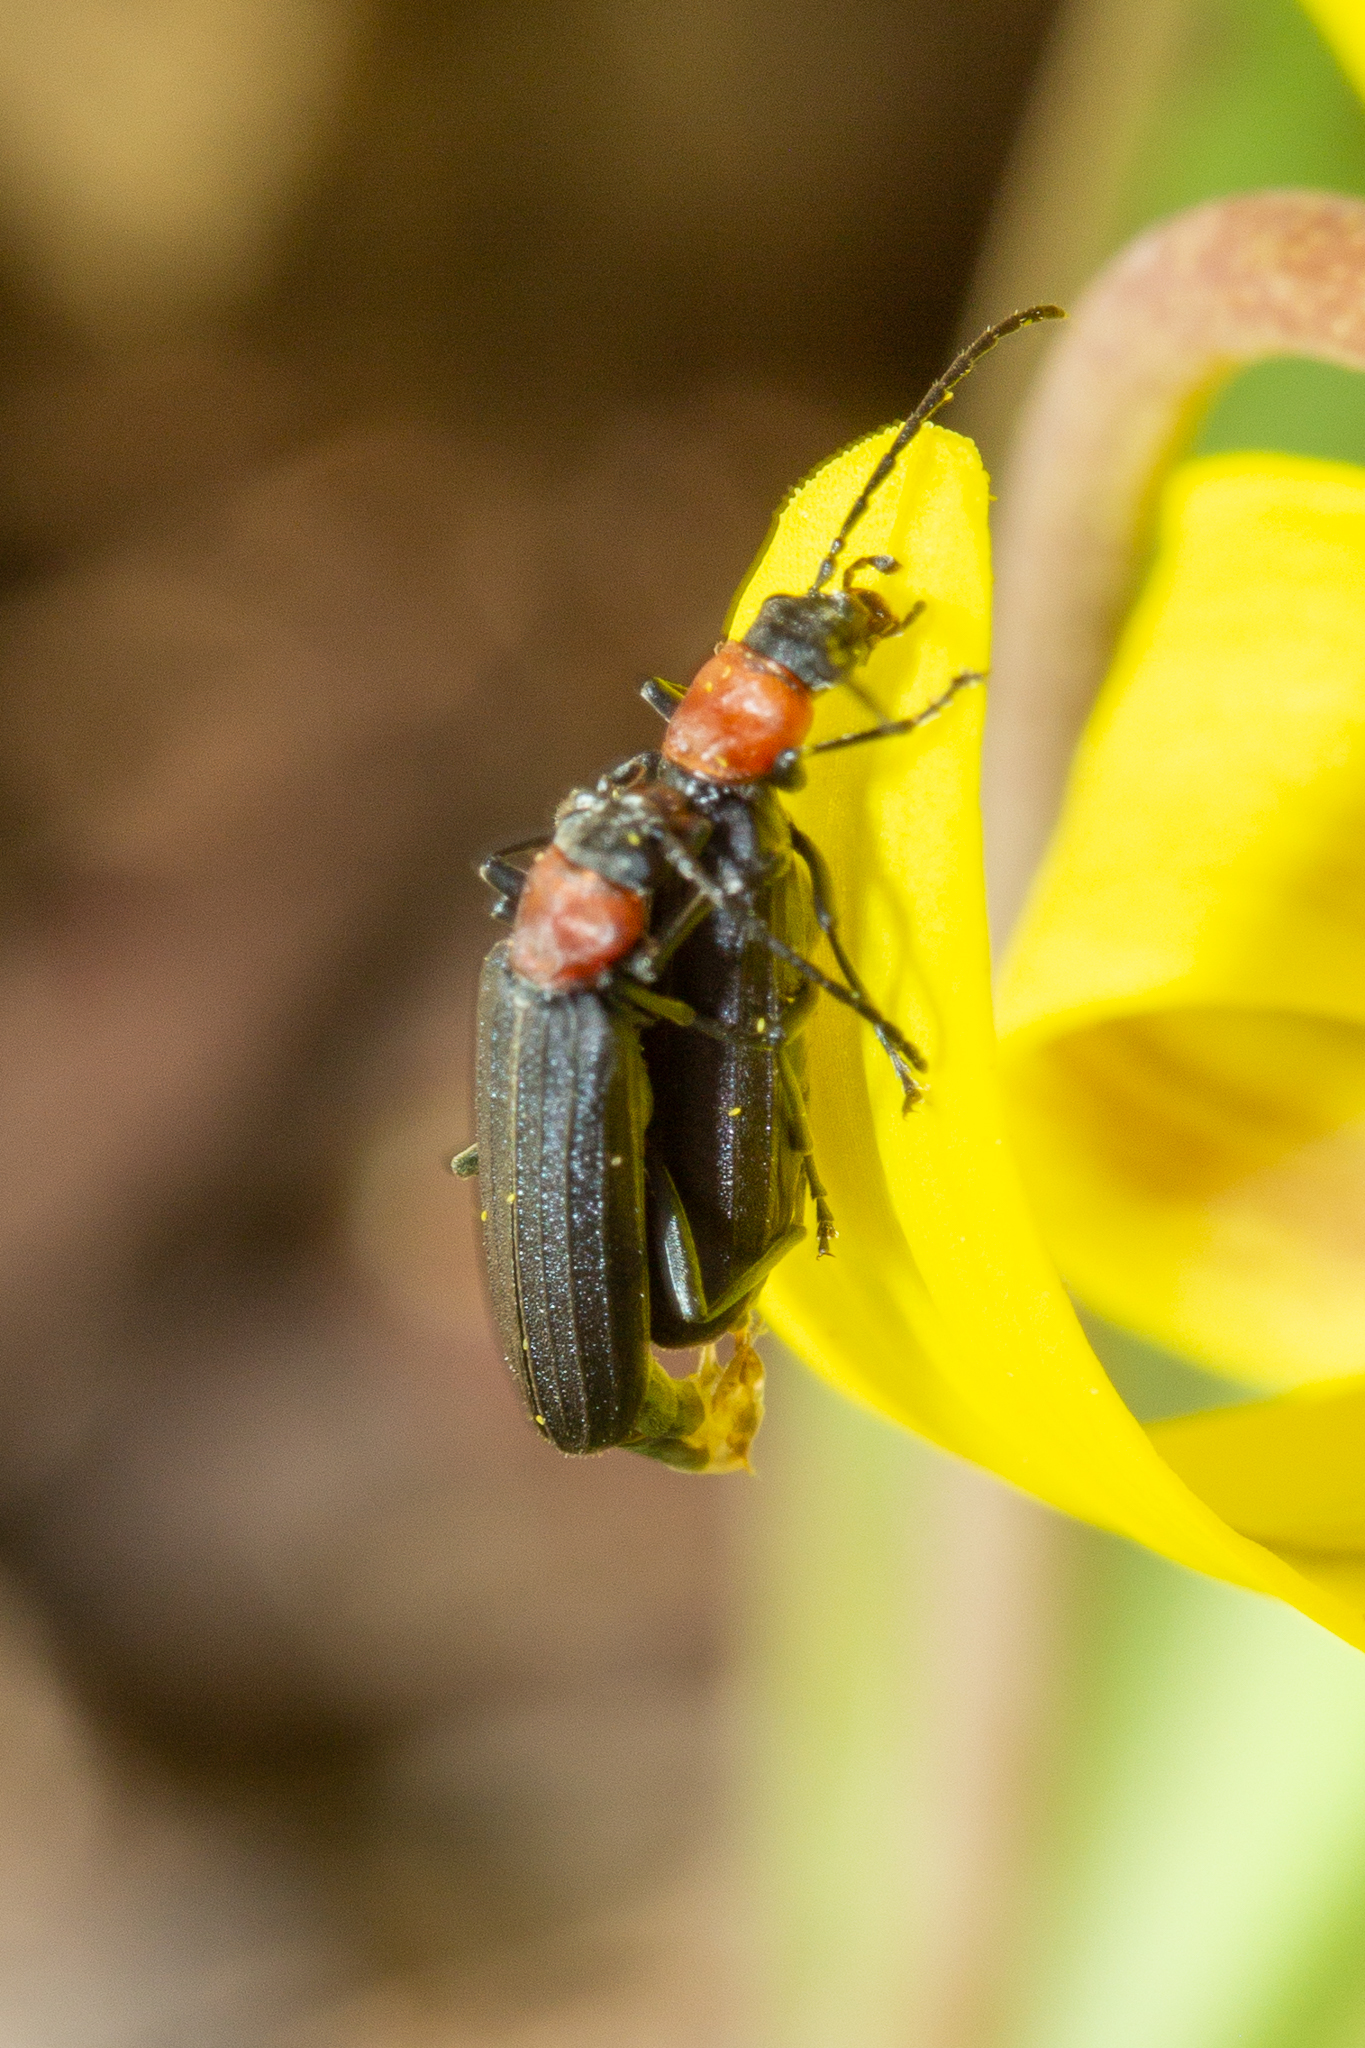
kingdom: Animalia
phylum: Arthropoda
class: Insecta
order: Coleoptera
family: Oedemeridae
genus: Ischnomera
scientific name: Ischnomera
